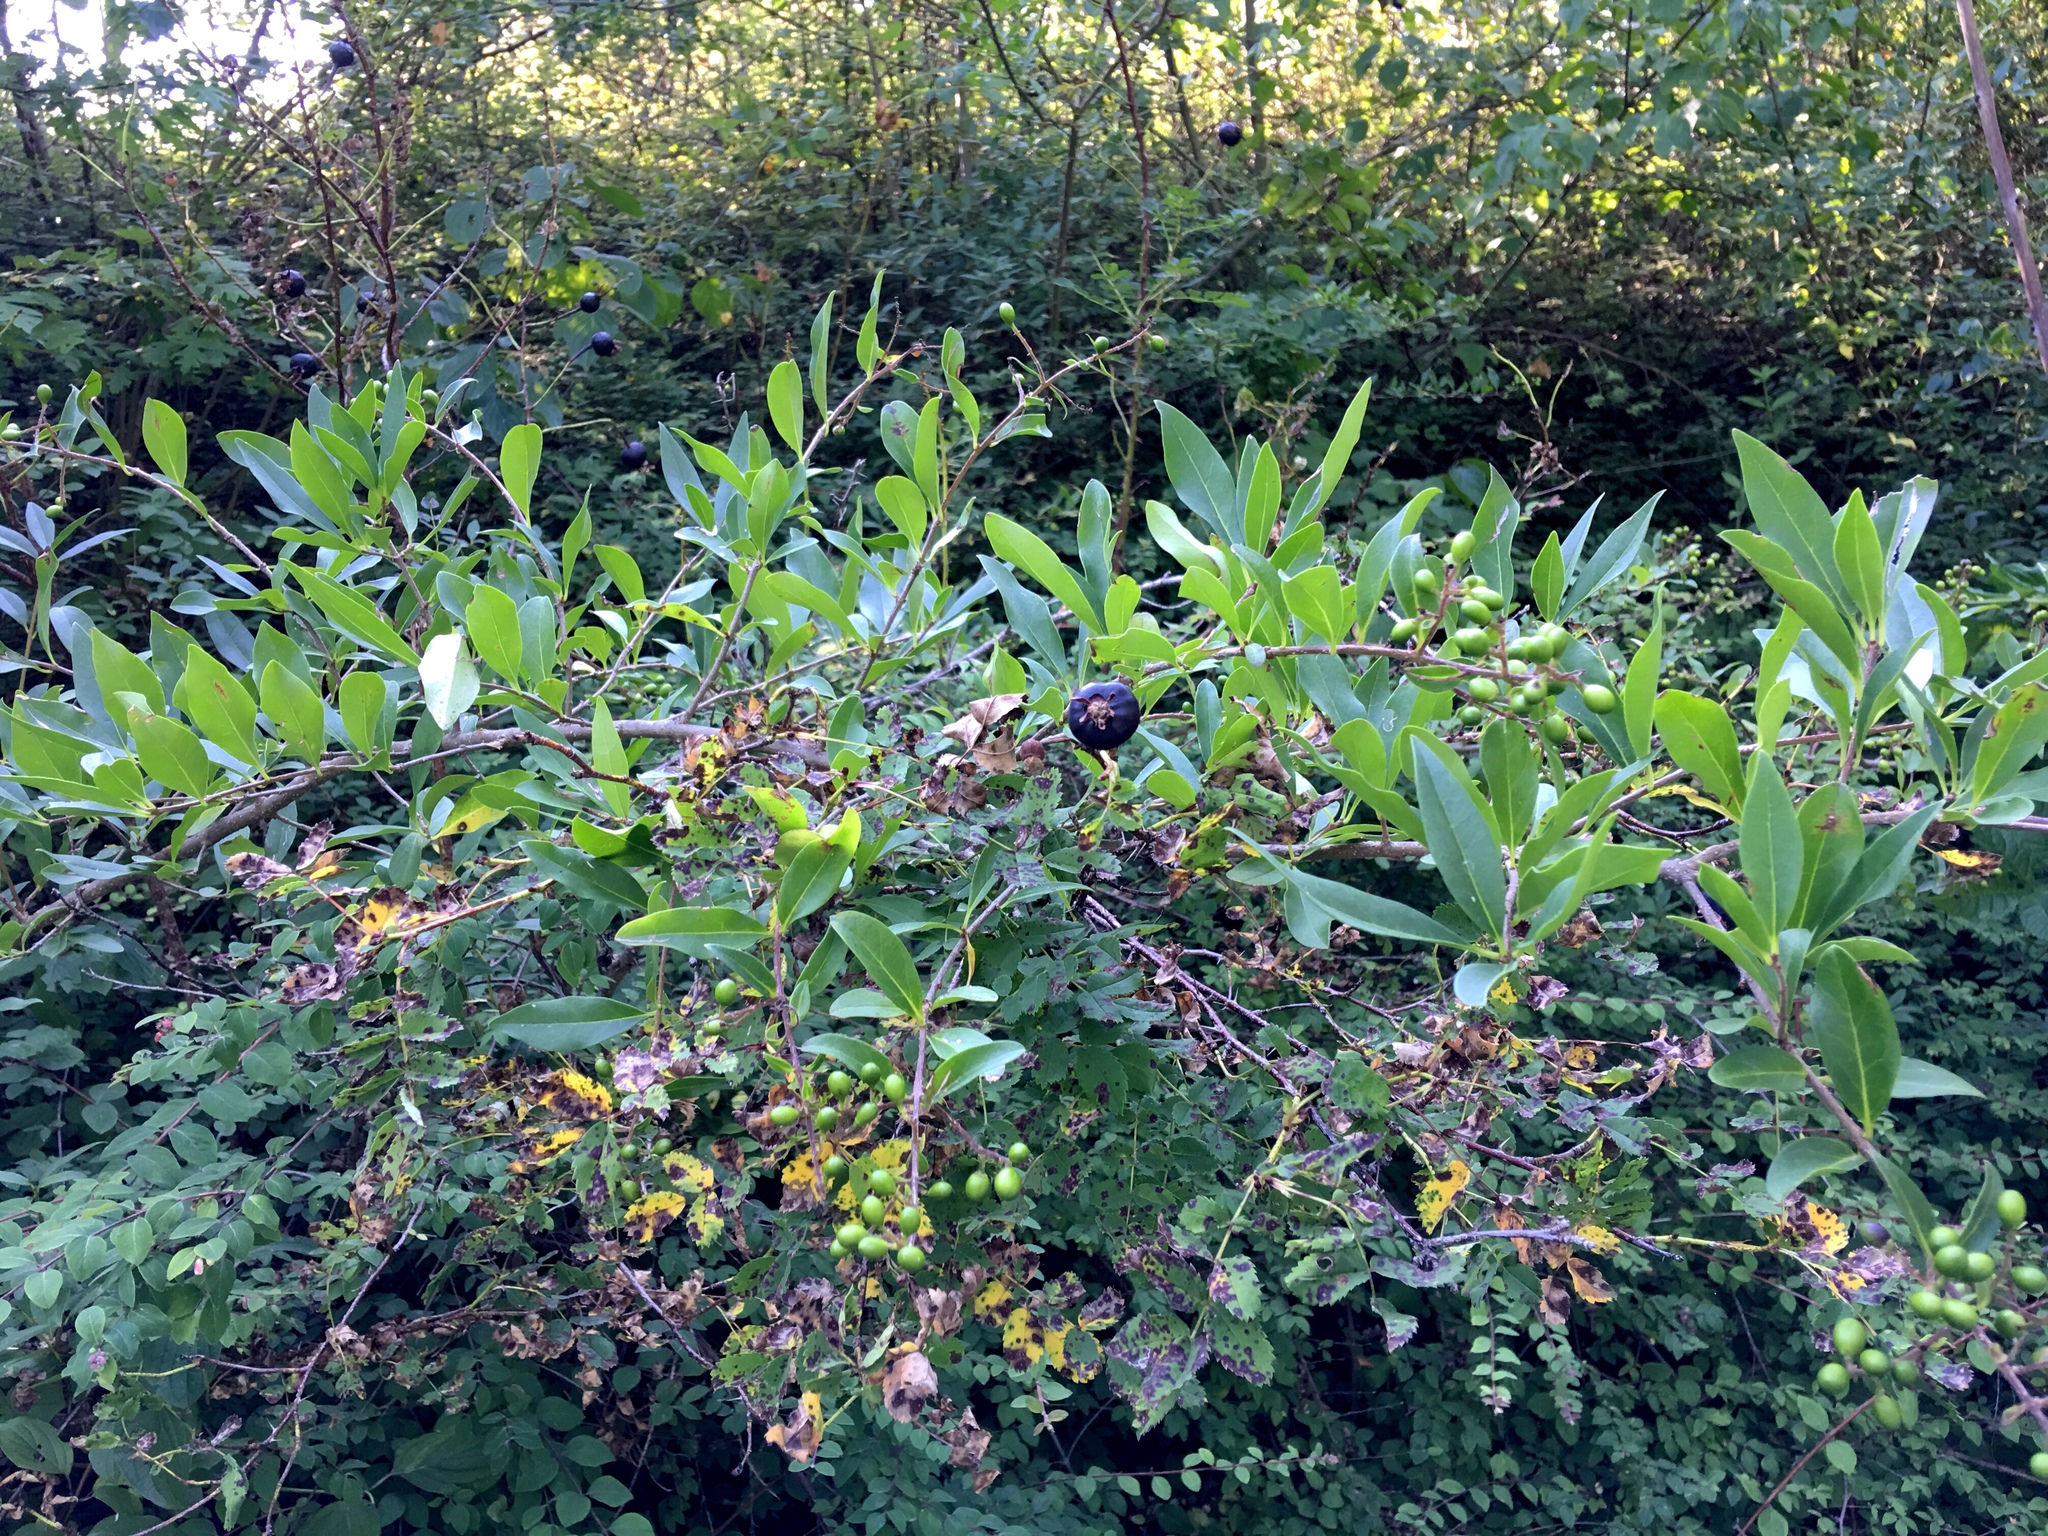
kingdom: Plantae
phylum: Tracheophyta
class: Magnoliopsida
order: Lamiales
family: Oleaceae
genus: Ligustrum
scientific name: Ligustrum vulgare
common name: Wild privet
